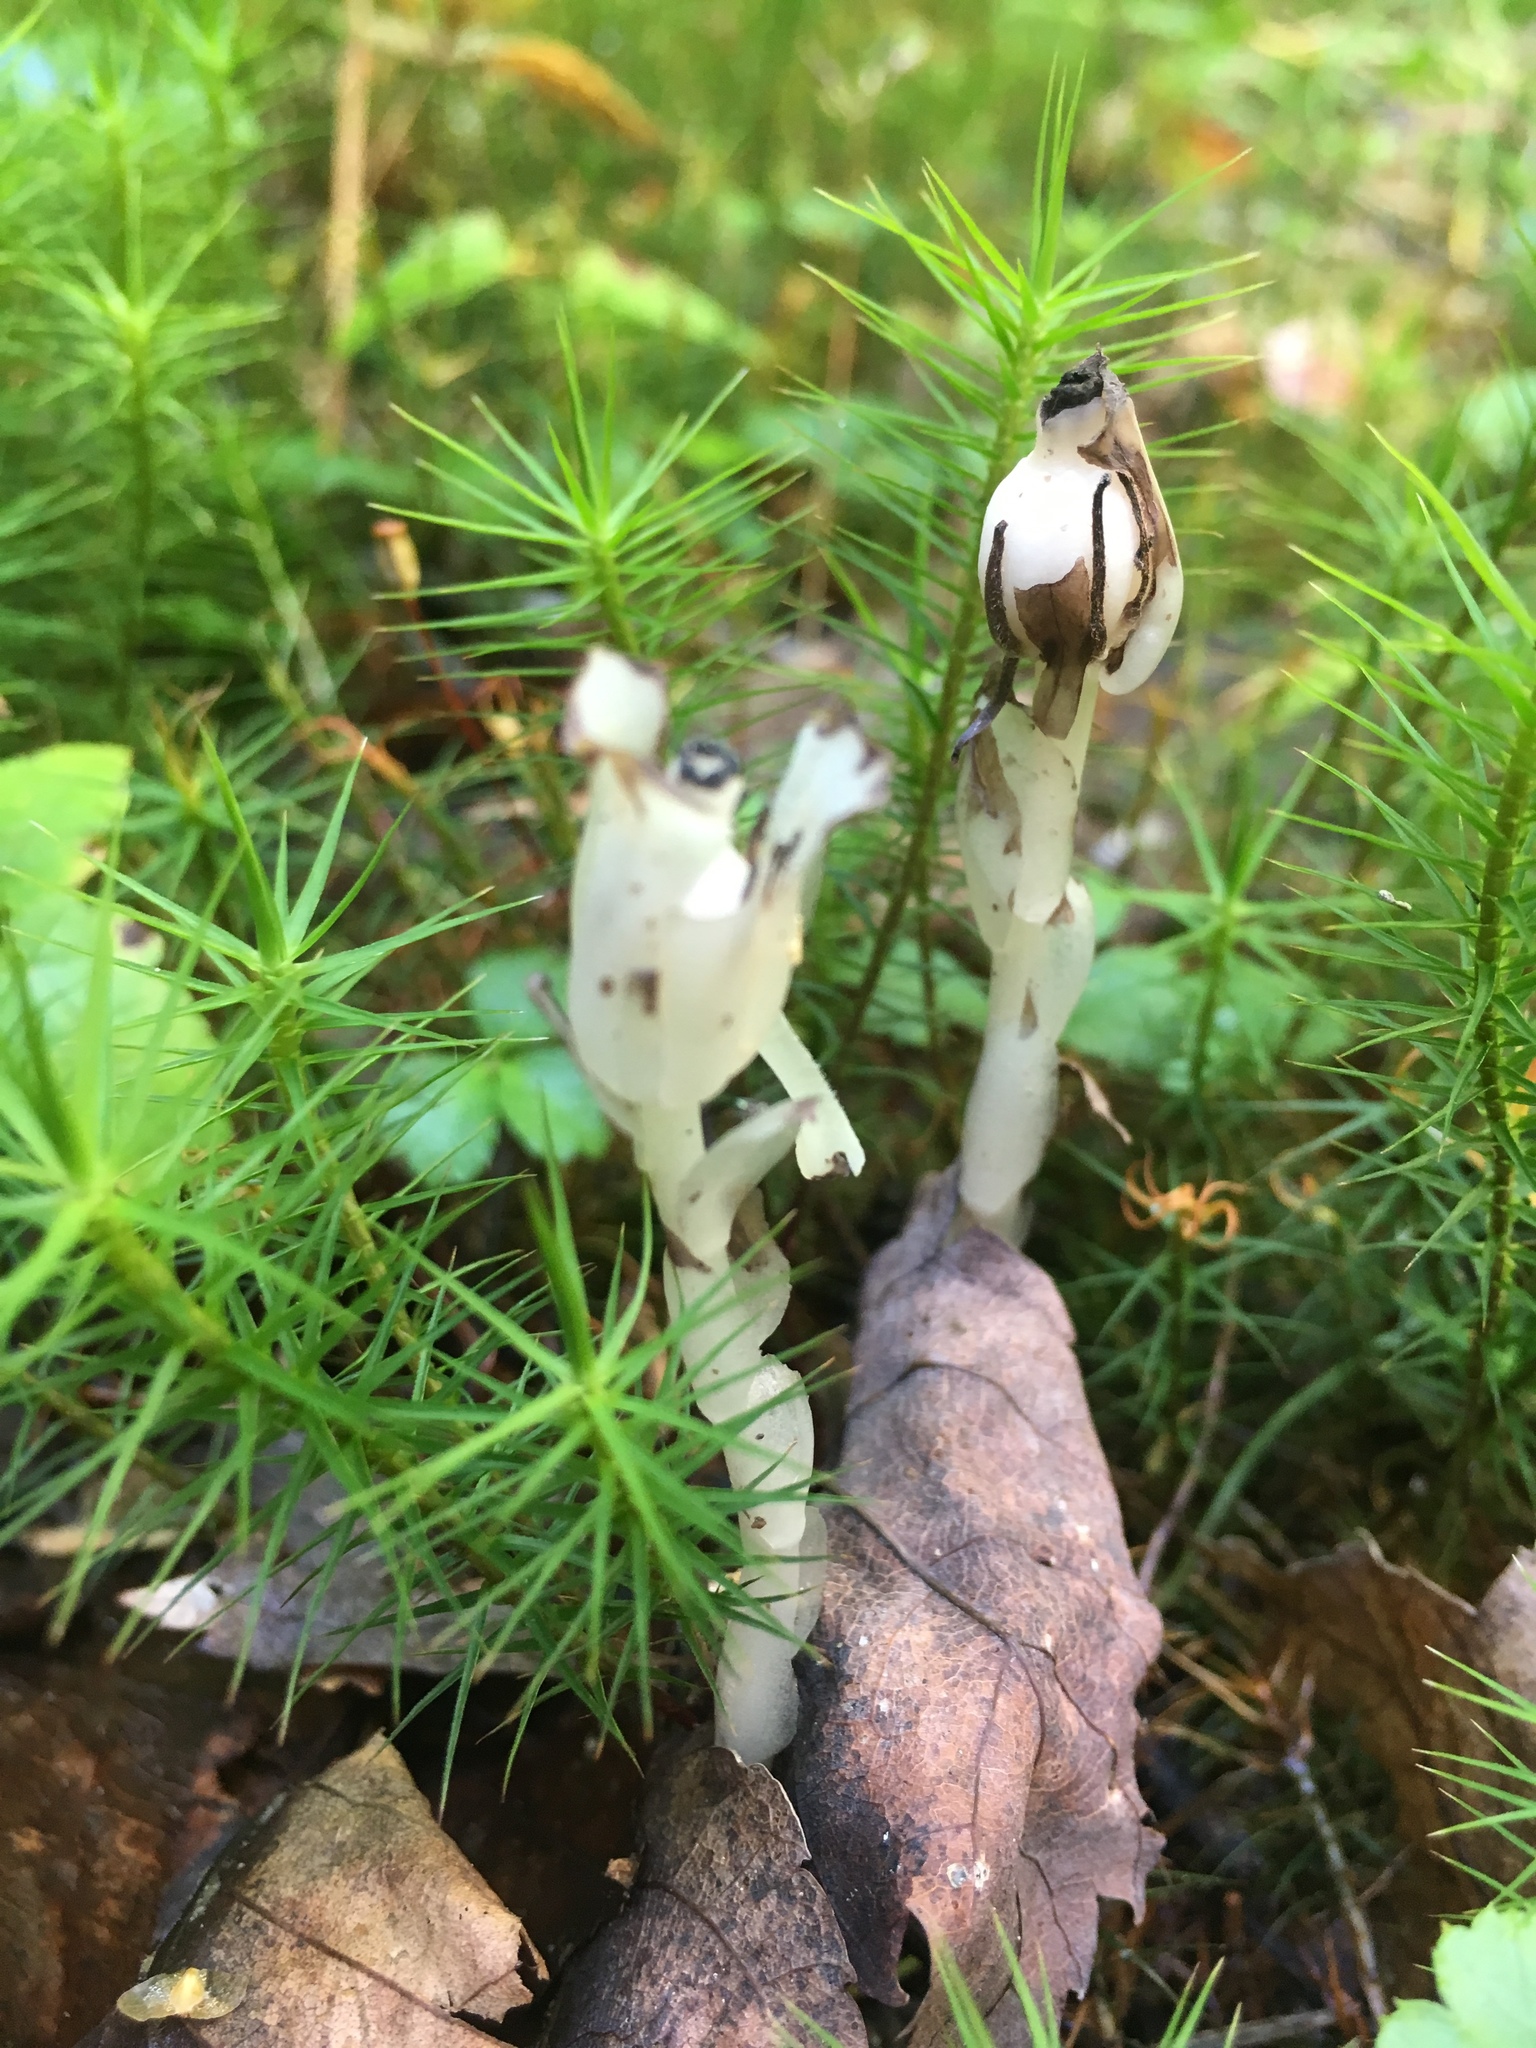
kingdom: Plantae
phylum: Tracheophyta
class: Magnoliopsida
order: Ericales
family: Ericaceae
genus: Monotropa
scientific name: Monotropa uniflora
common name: Convulsion root
